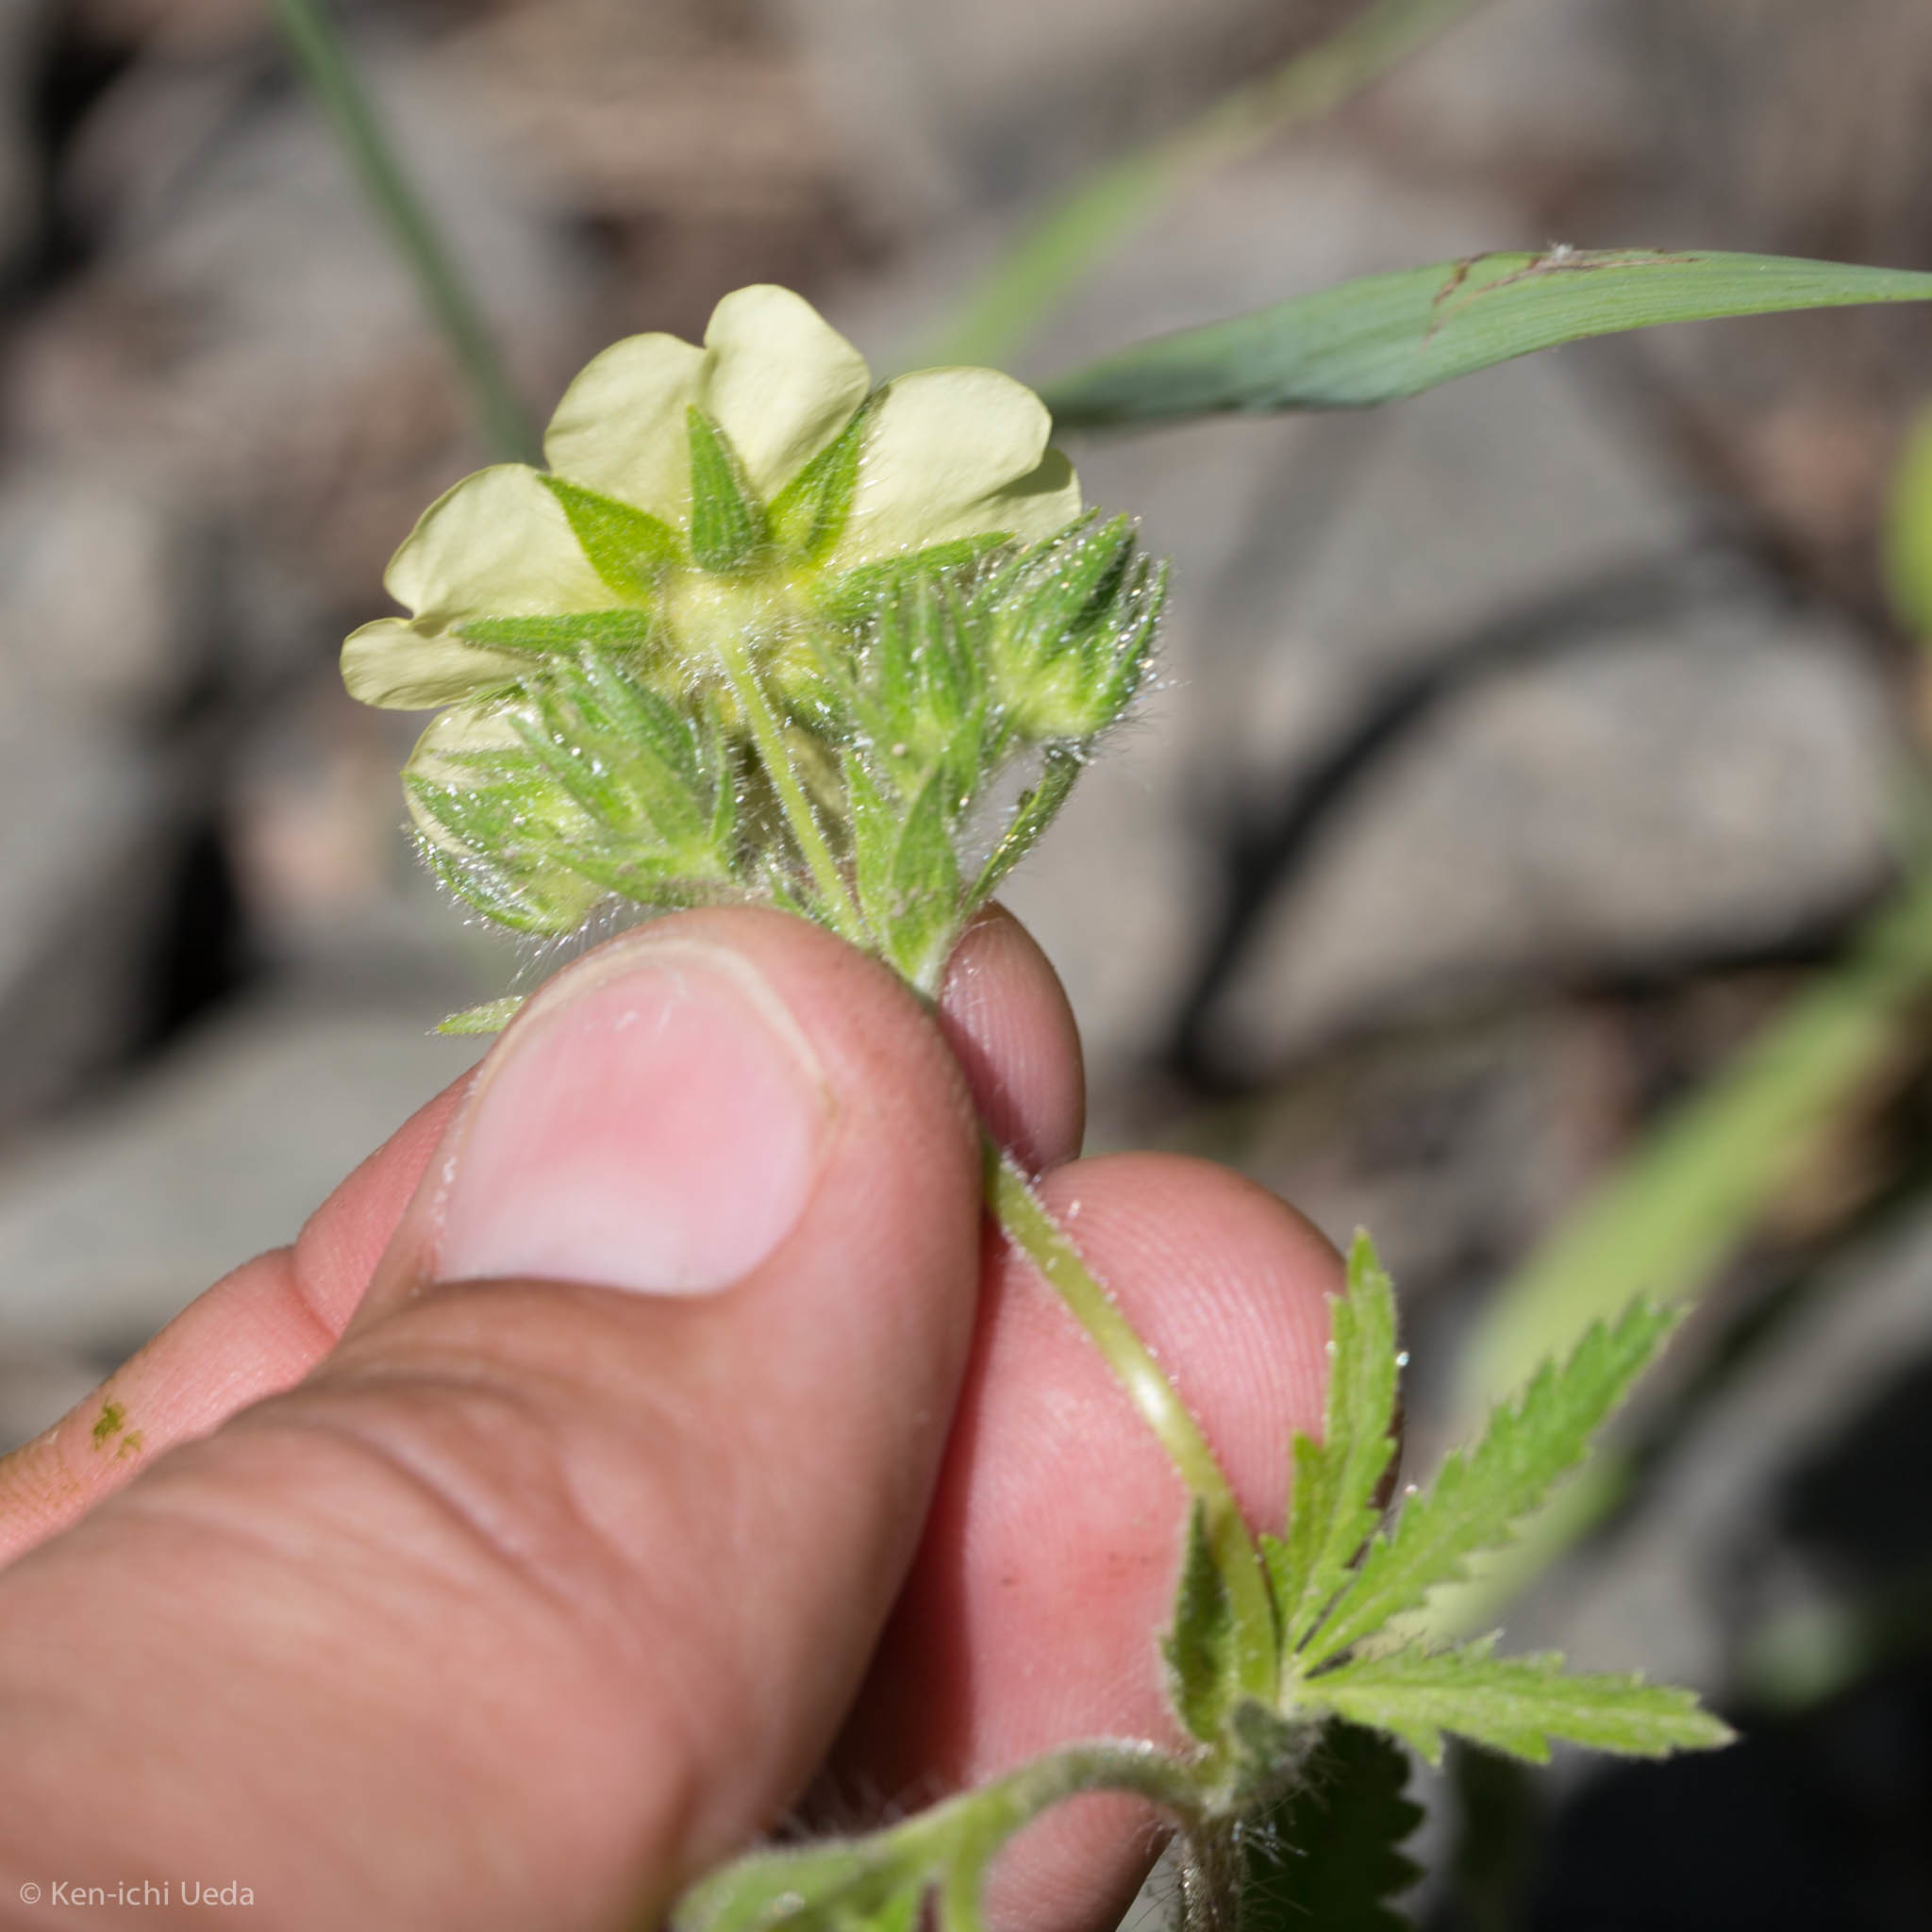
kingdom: Plantae
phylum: Tracheophyta
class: Magnoliopsida
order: Rosales
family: Rosaceae
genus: Potentilla
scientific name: Potentilla recta
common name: Sulphur cinquefoil
